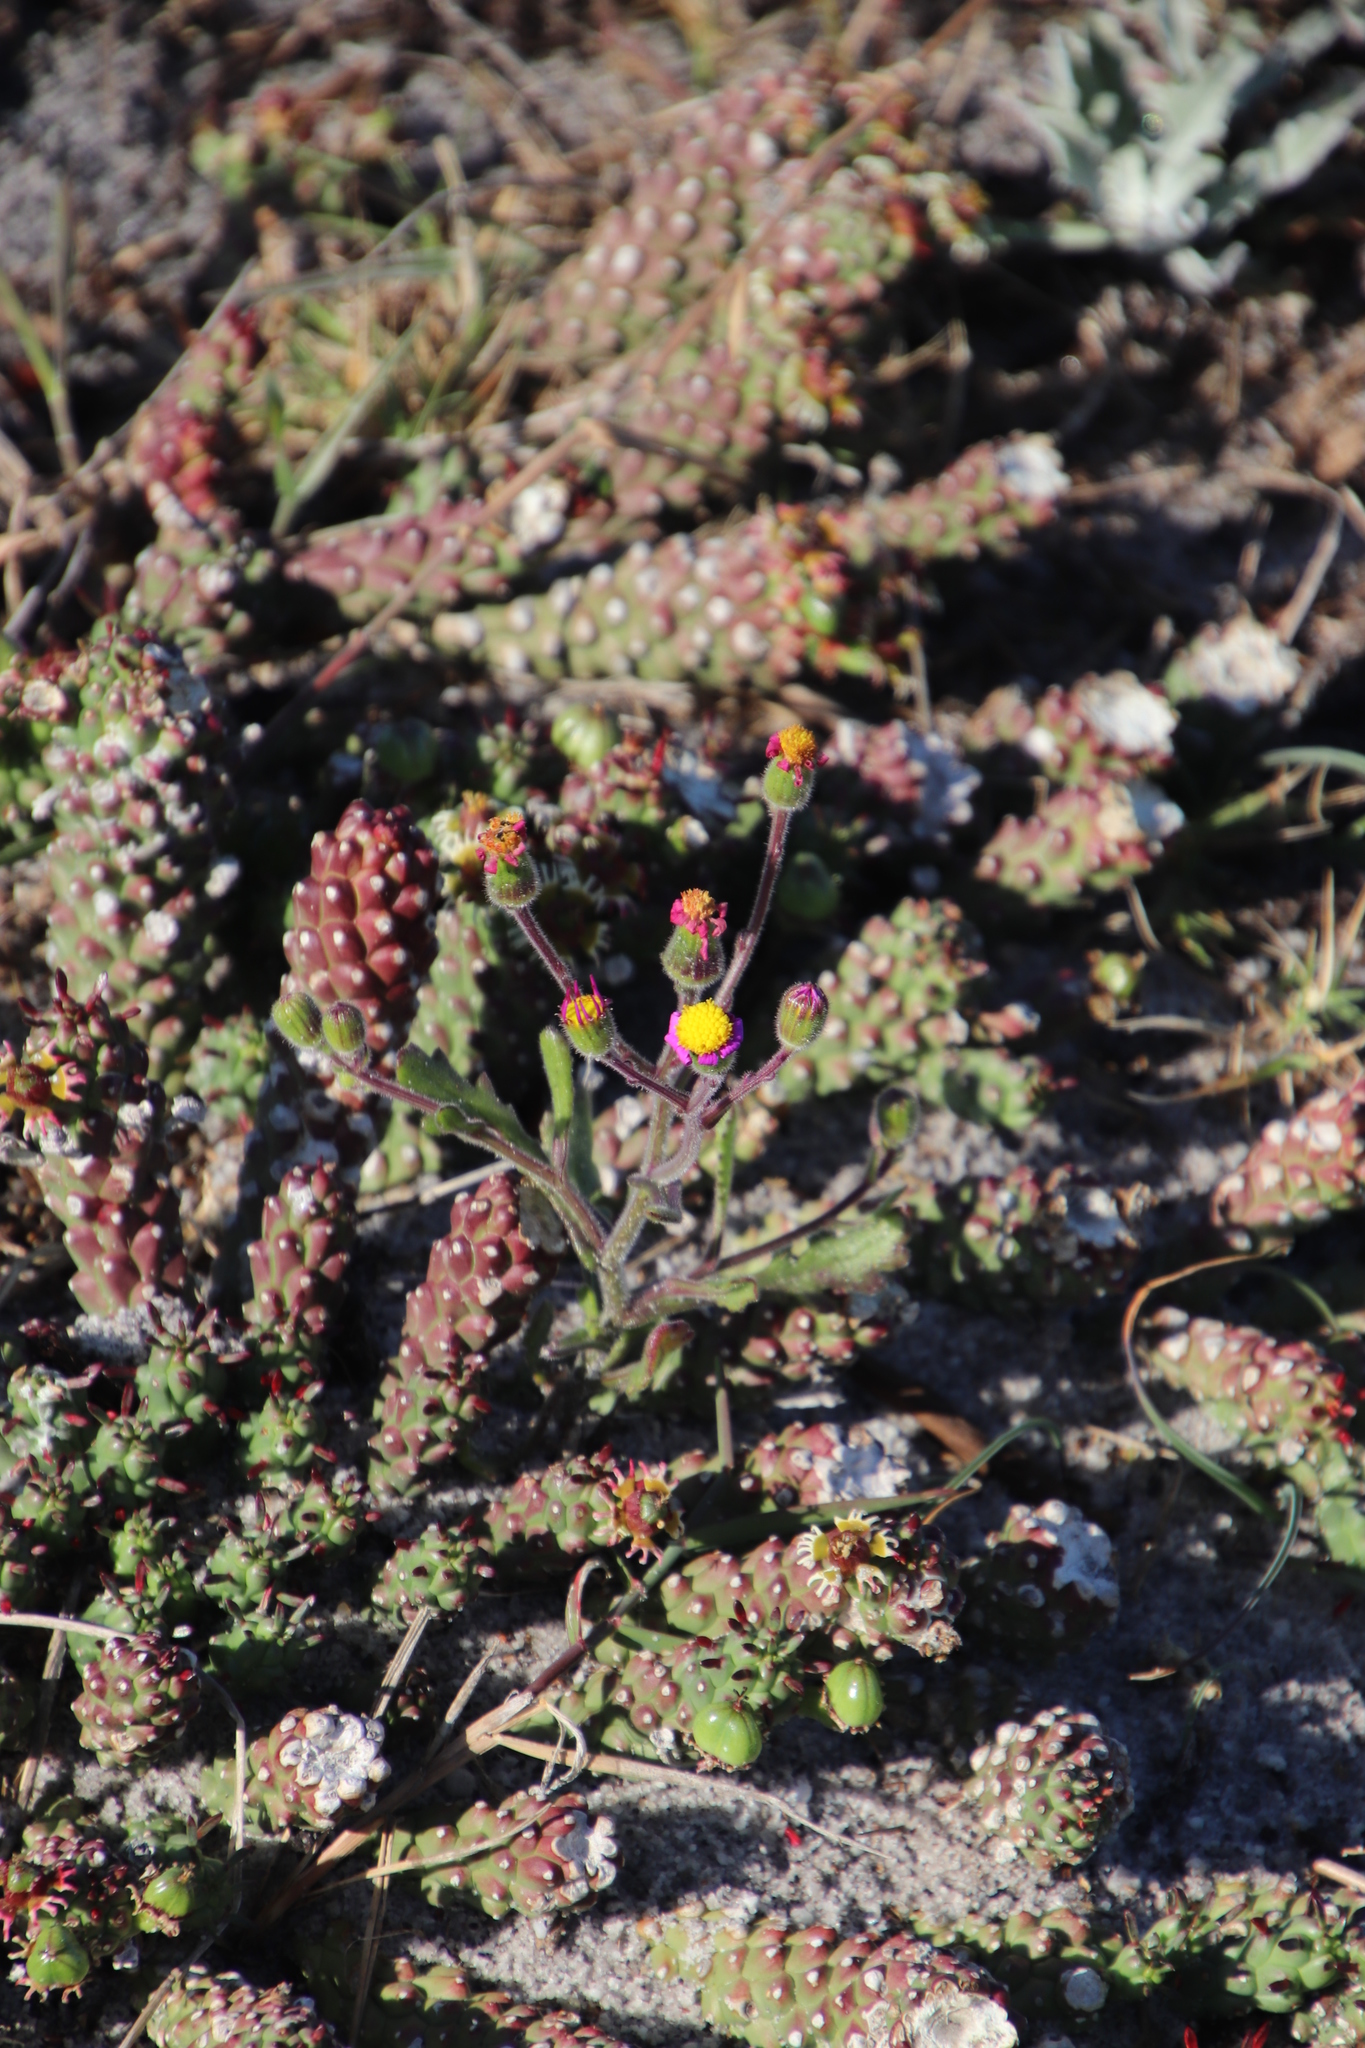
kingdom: Plantae
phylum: Tracheophyta
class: Magnoliopsida
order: Asterales
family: Asteraceae
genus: Senecio
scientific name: Senecio arenarius
